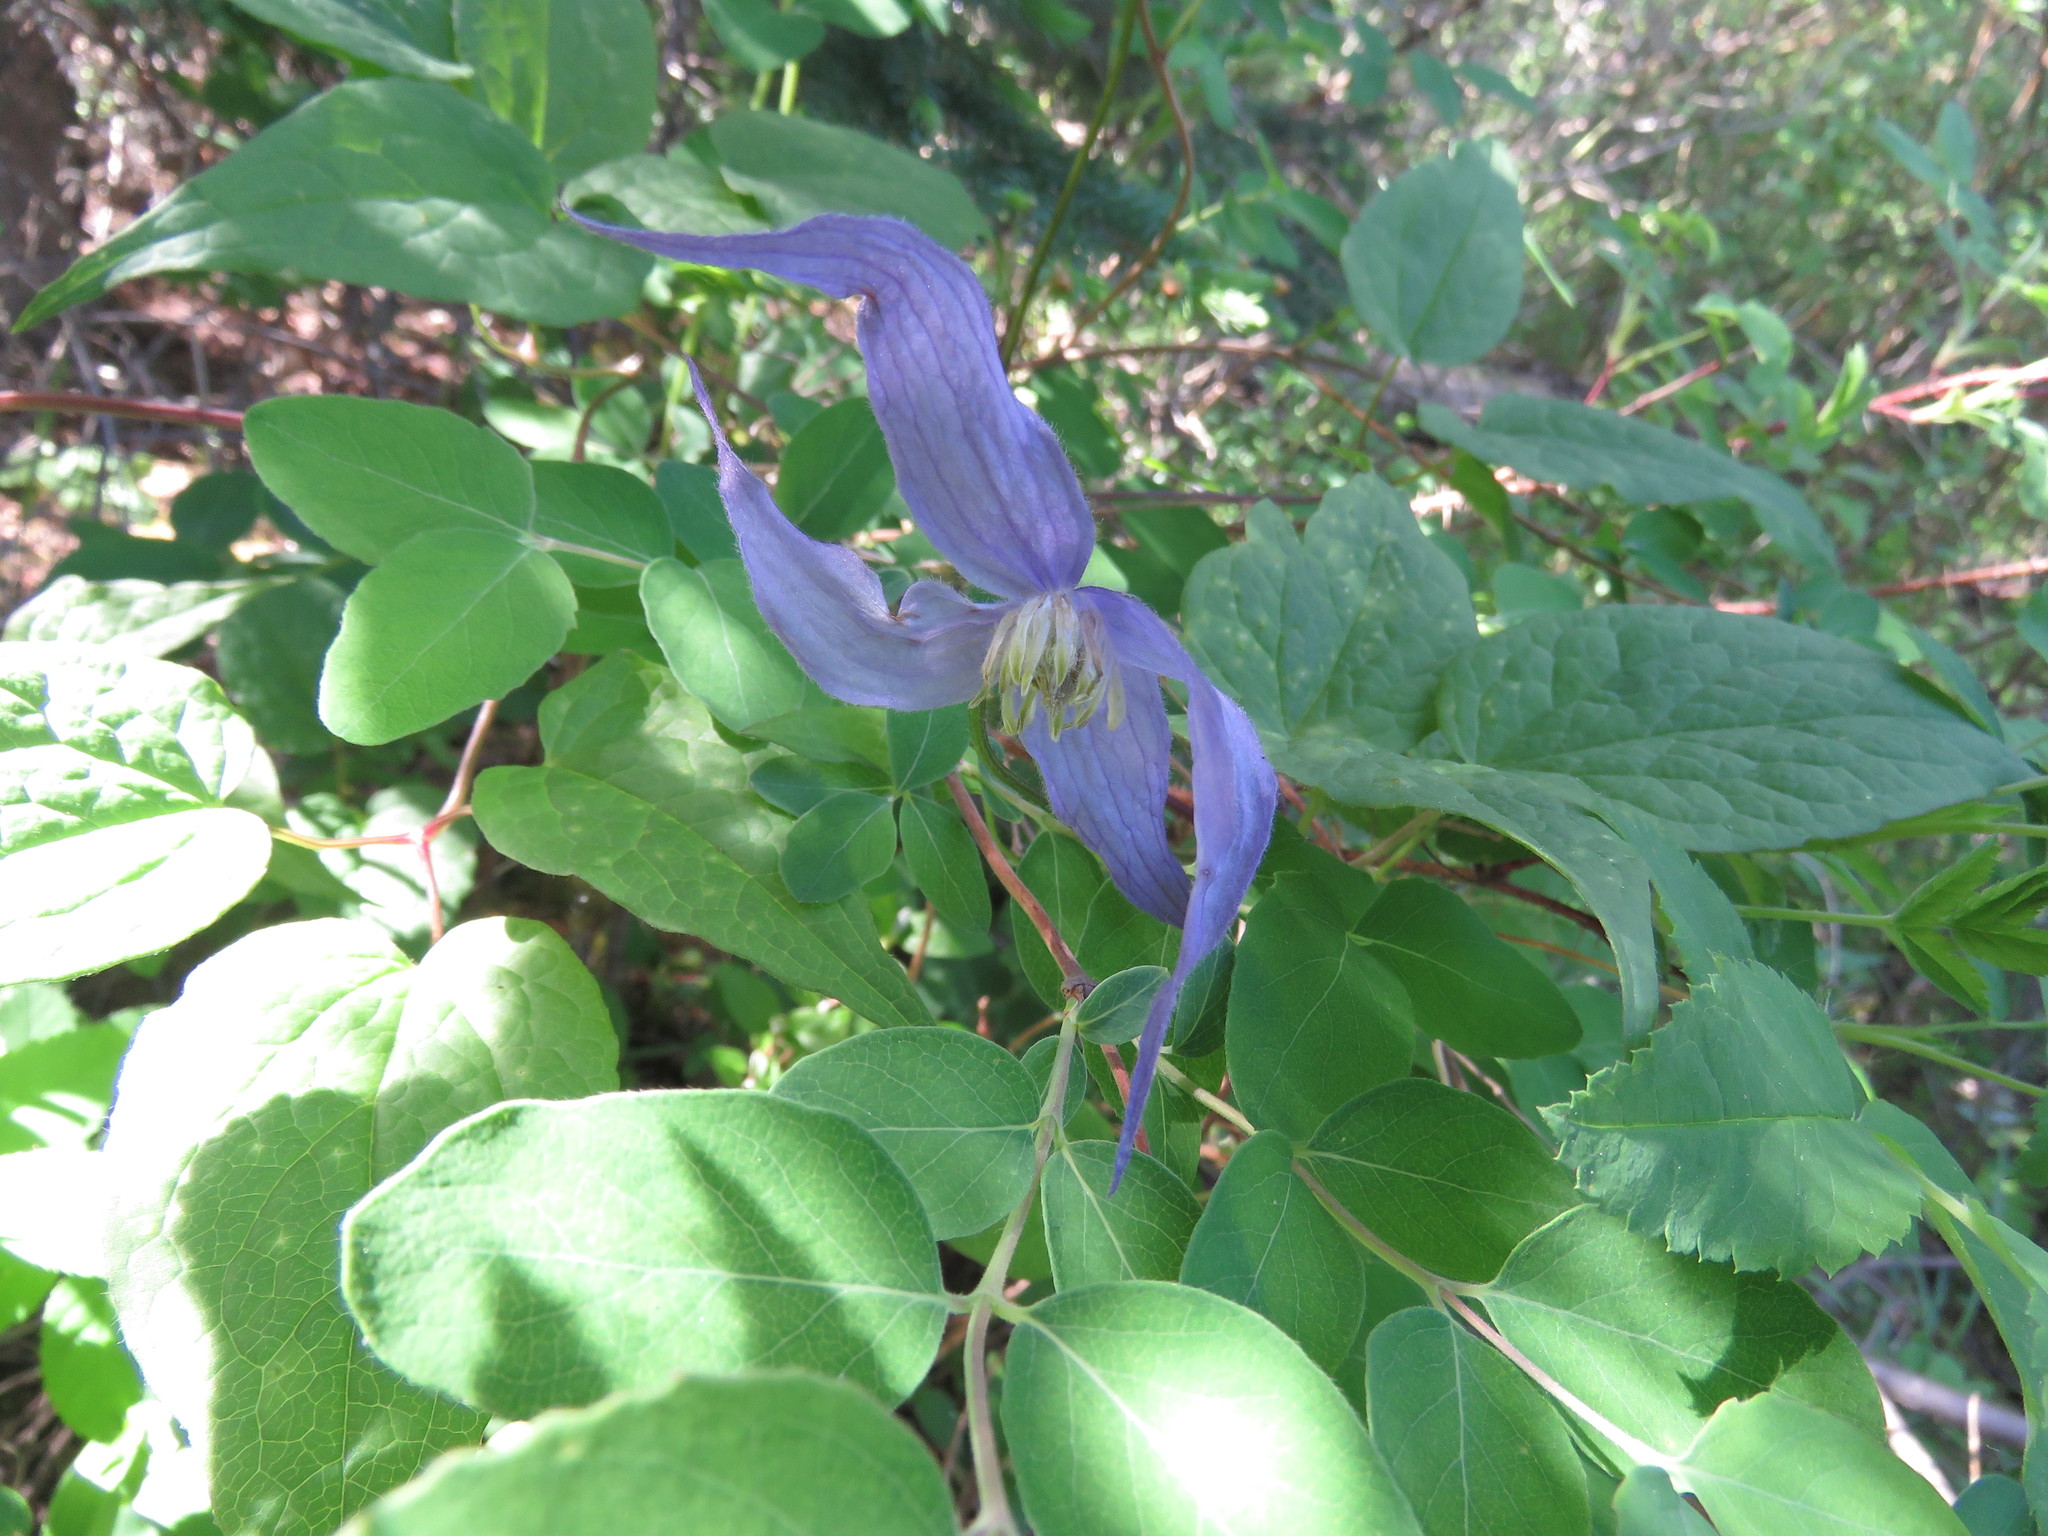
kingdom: Plantae
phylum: Tracheophyta
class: Magnoliopsida
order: Ranunculales
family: Ranunculaceae
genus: Clematis
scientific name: Clematis occidentalis
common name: Purple clematis
